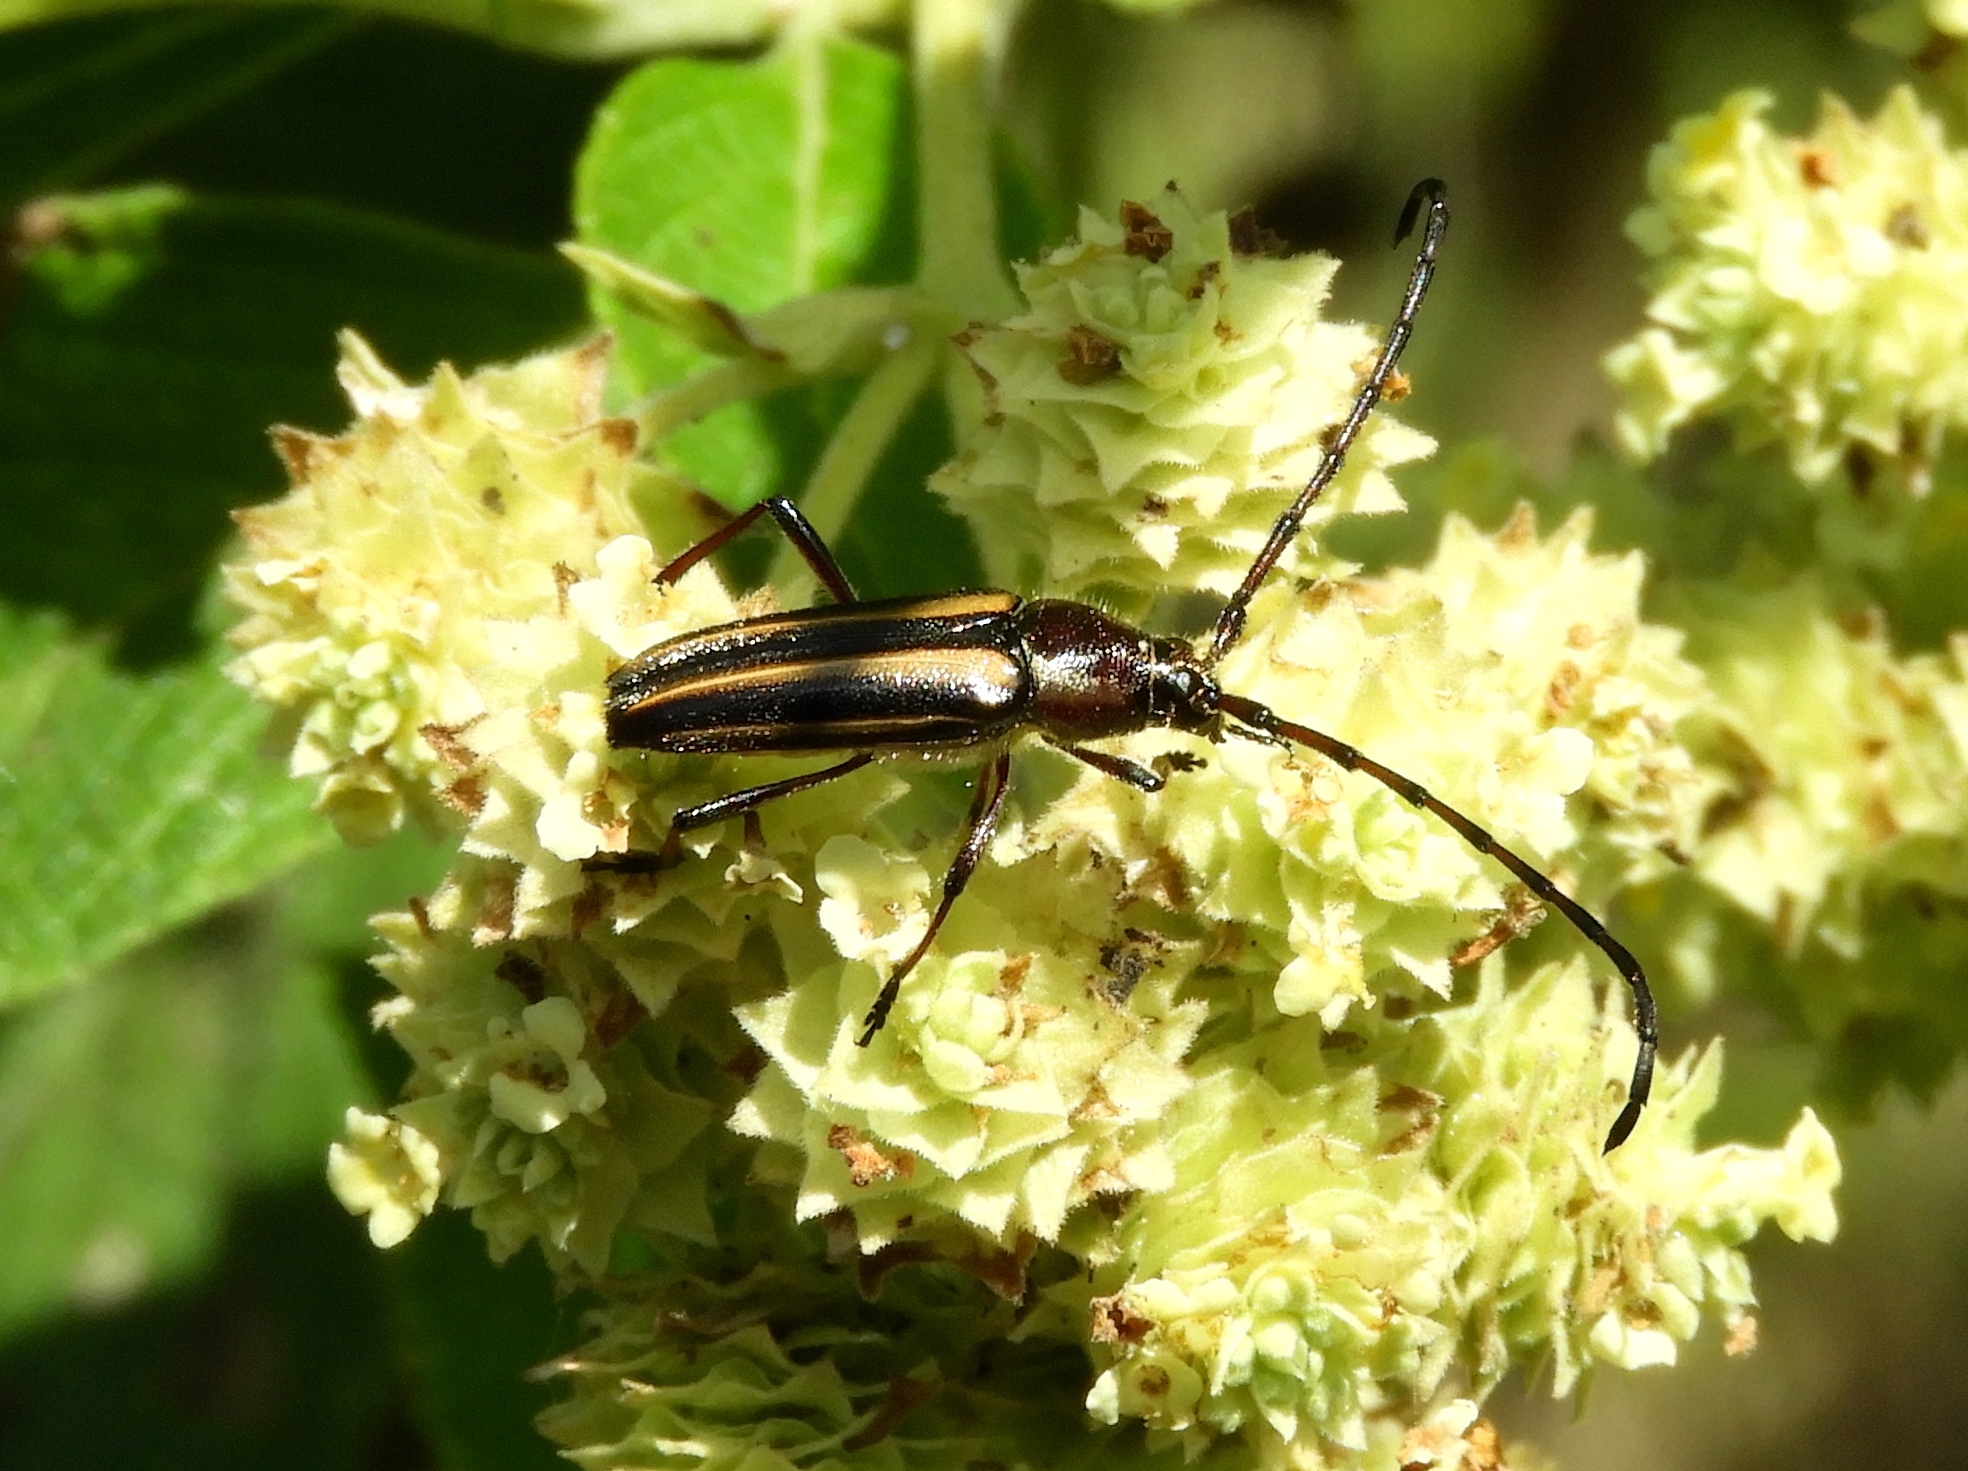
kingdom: Animalia
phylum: Arthropoda
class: Insecta
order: Coleoptera
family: Cerambycidae
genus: Sphaenothecus
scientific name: Sphaenothecus
